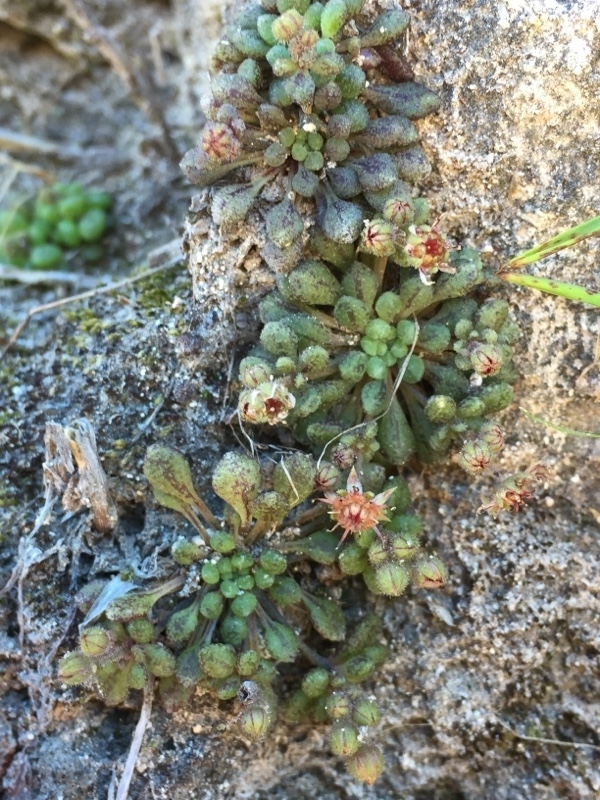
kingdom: Plantae
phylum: Tracheophyta
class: Magnoliopsida
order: Saxifragales
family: Crassulaceae
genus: Monanthes
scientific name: Monanthes brachycaulos
